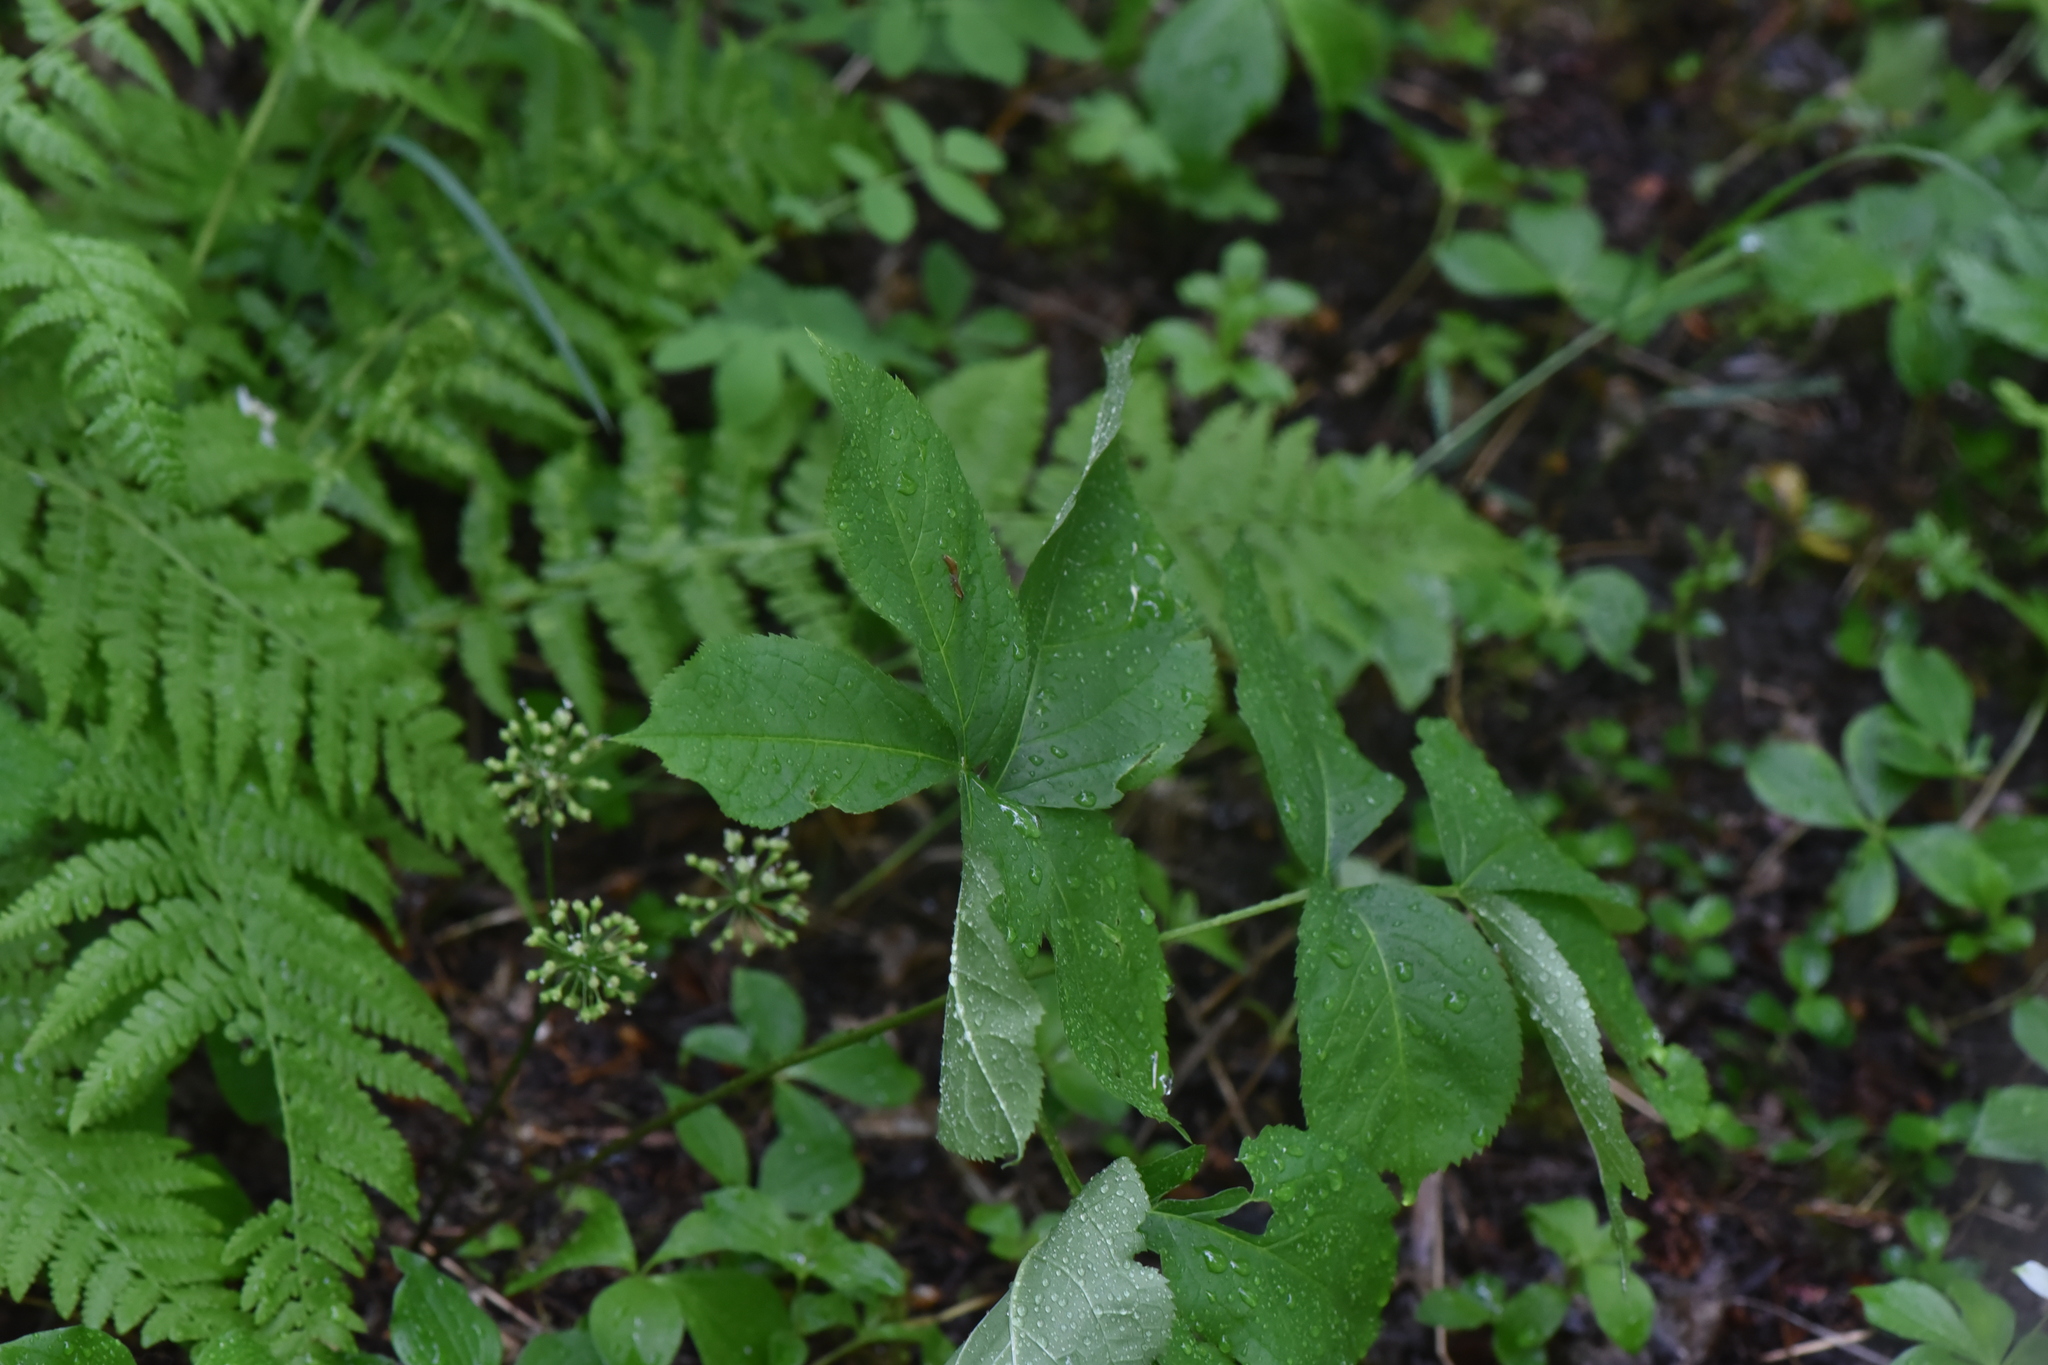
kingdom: Plantae
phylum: Tracheophyta
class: Magnoliopsida
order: Apiales
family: Araliaceae
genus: Aralia
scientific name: Aralia nudicaulis
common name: Wild sarsaparilla
